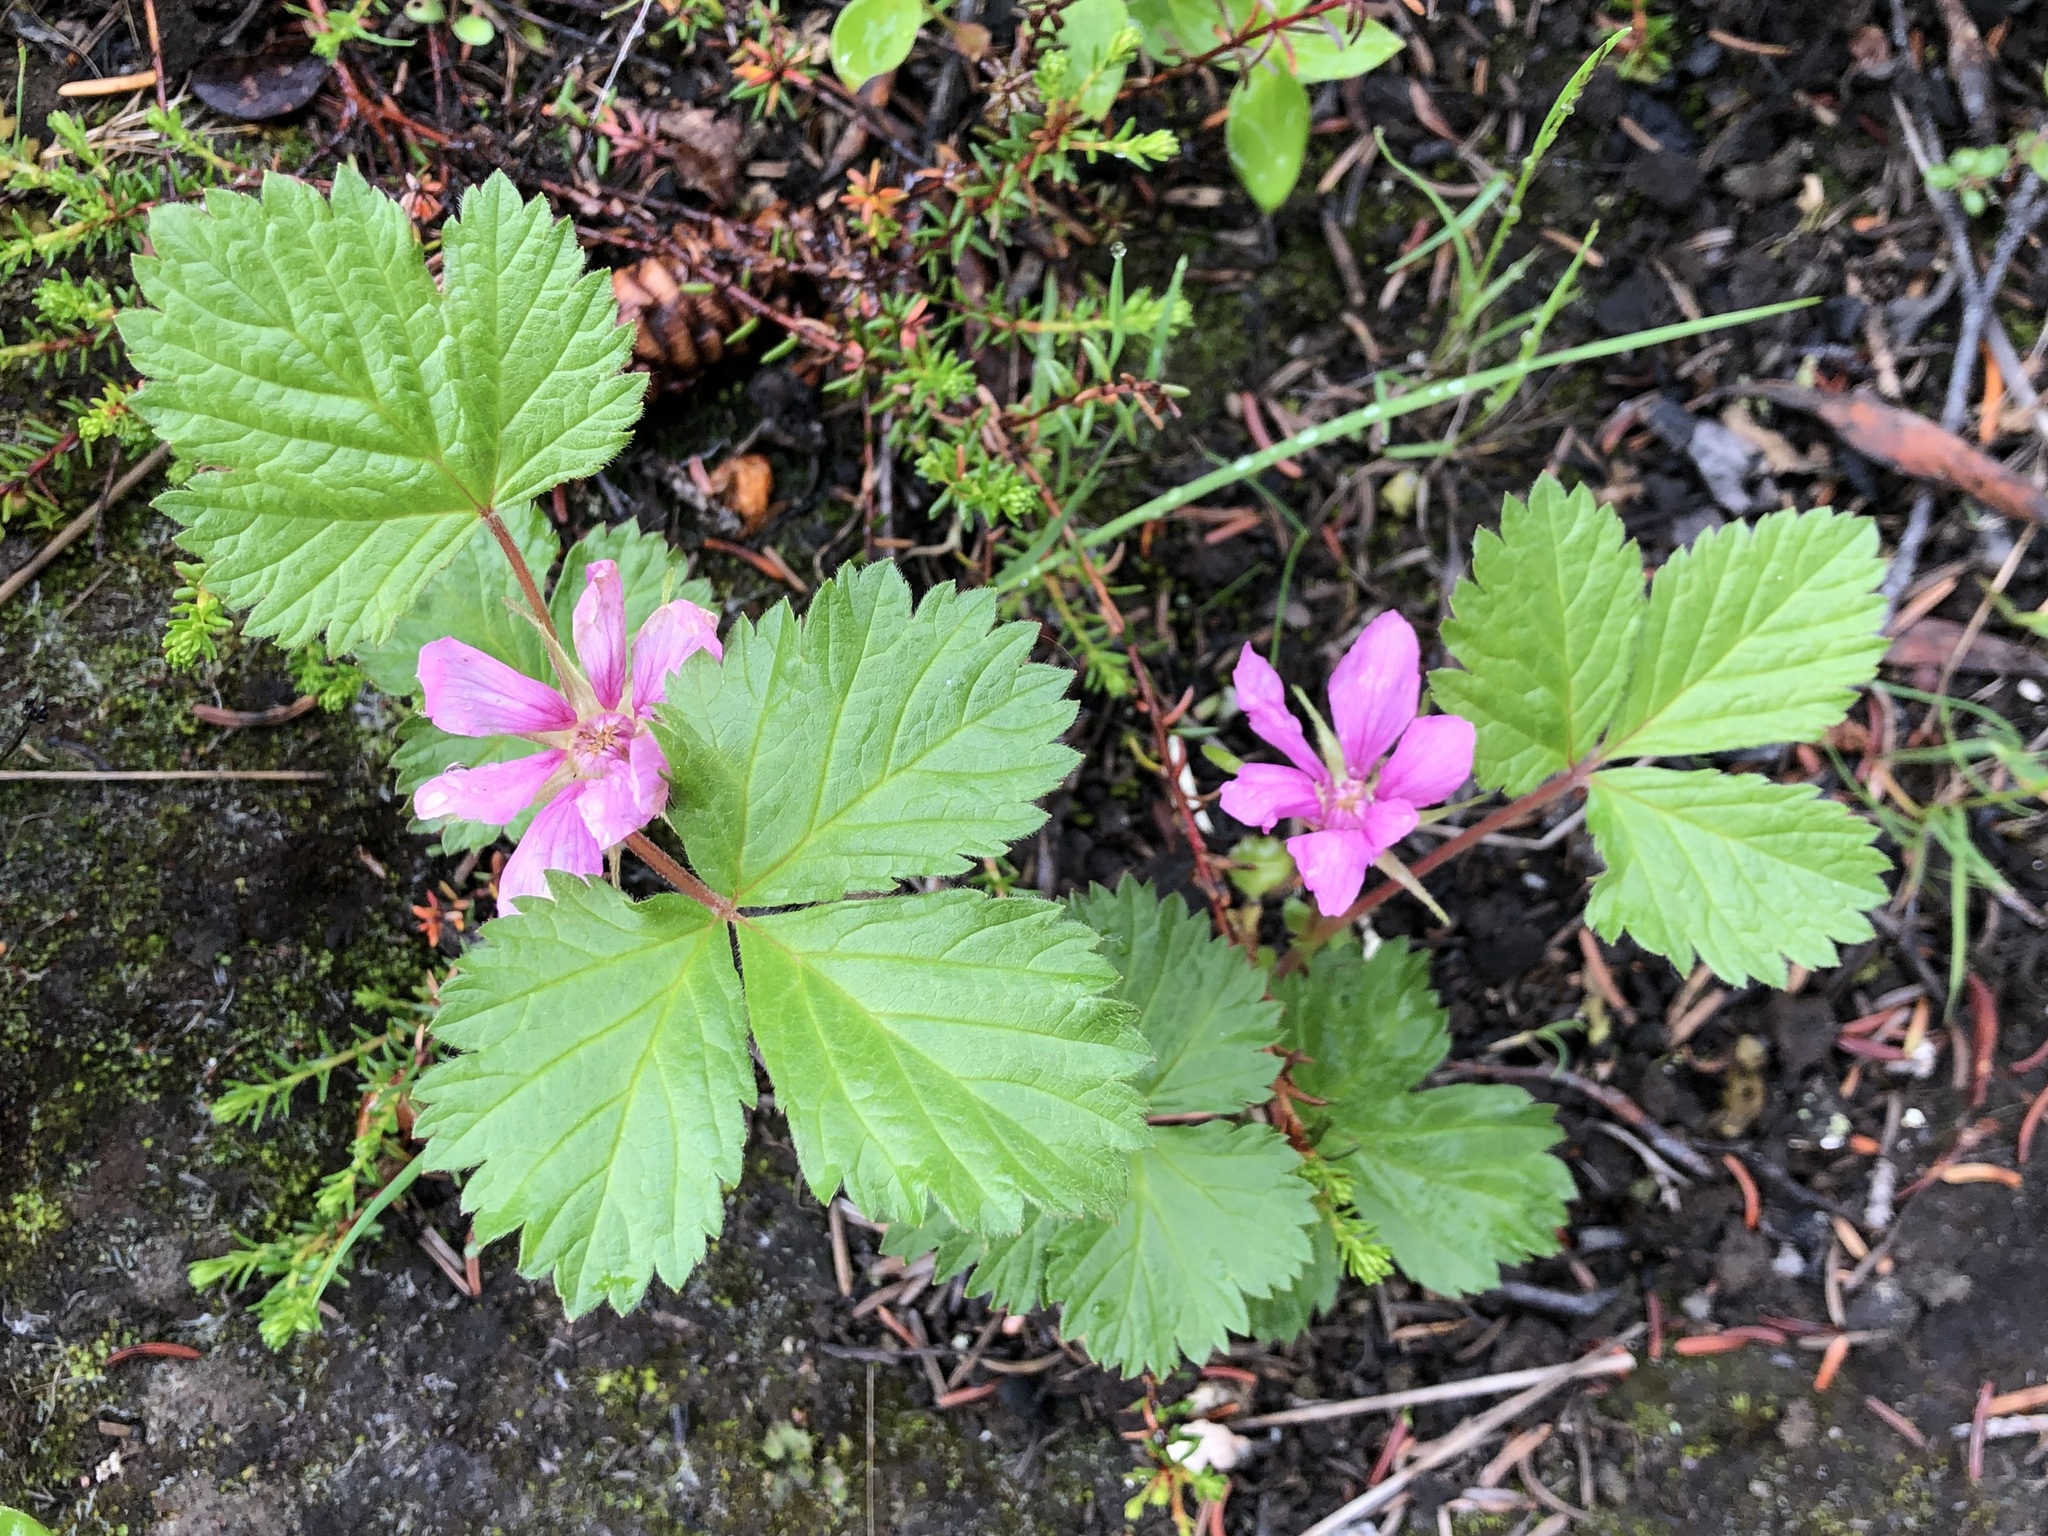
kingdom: Plantae
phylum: Tracheophyta
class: Magnoliopsida
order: Rosales
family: Rosaceae
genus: Rubus
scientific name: Rubus arcticus
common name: Arctic bramble
